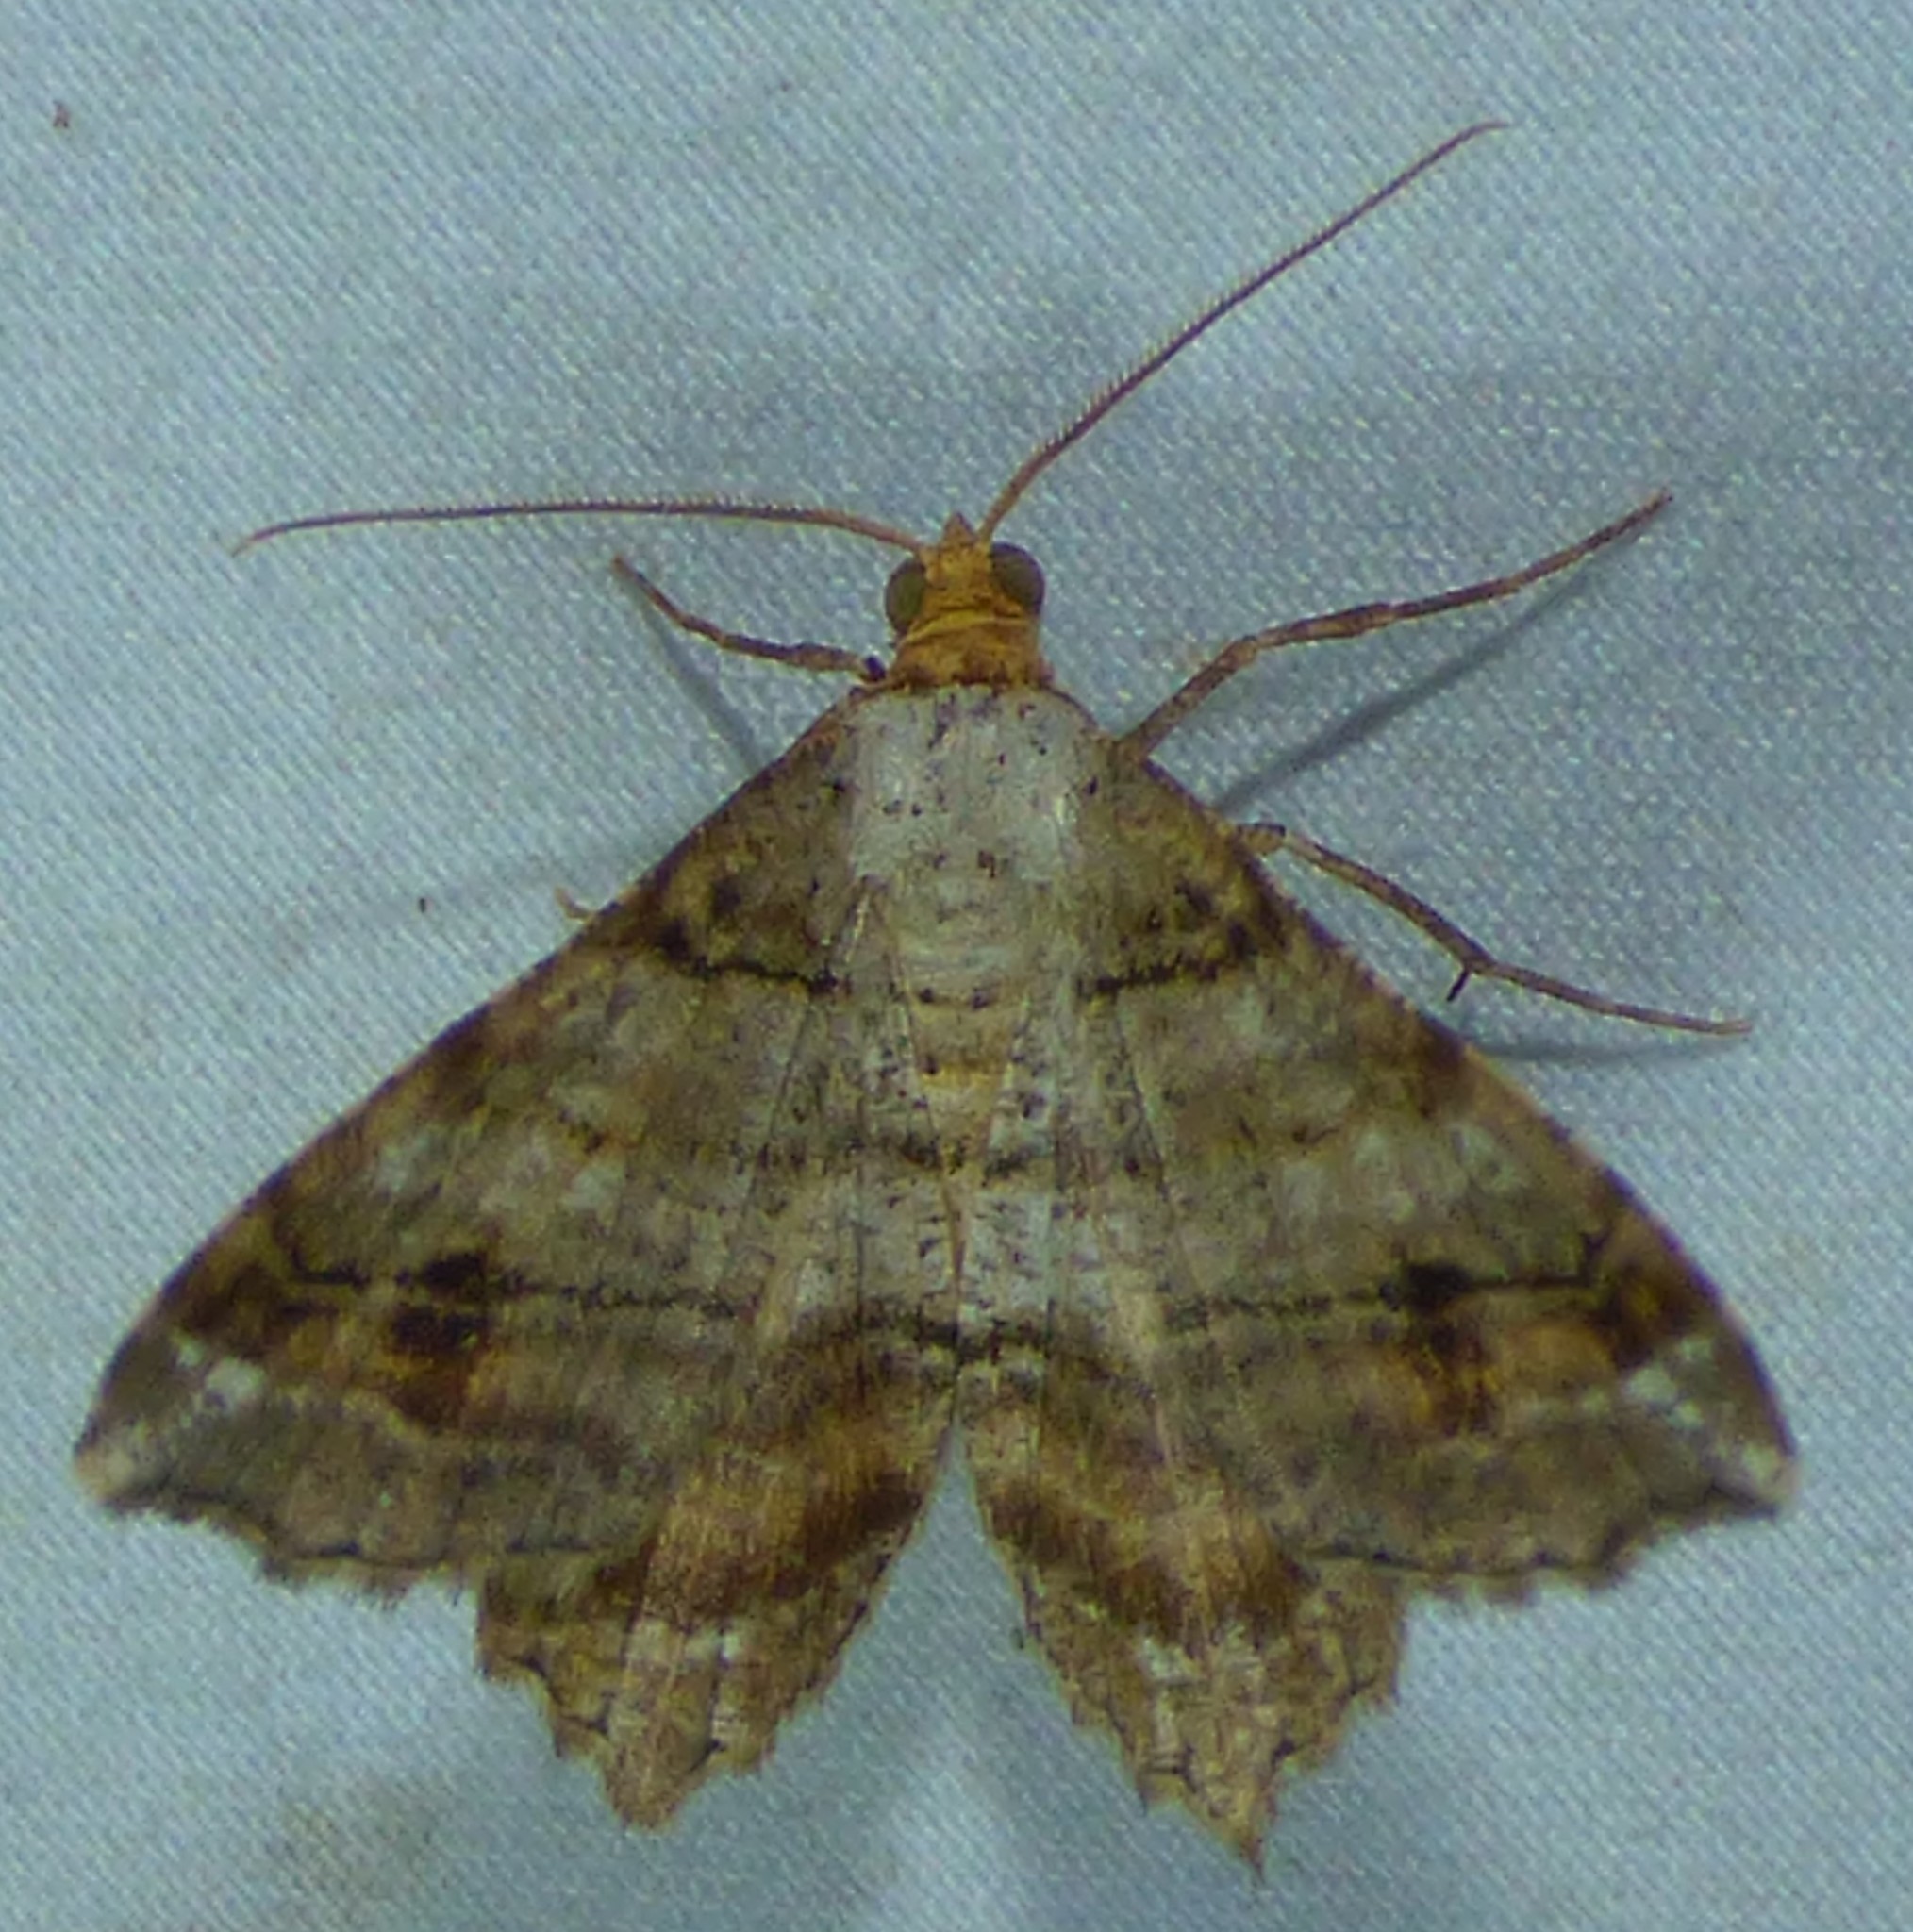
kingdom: Animalia
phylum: Arthropoda
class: Insecta
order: Lepidoptera
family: Geometridae
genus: Macaria
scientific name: Macaria multilineata
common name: Many-lined angle
